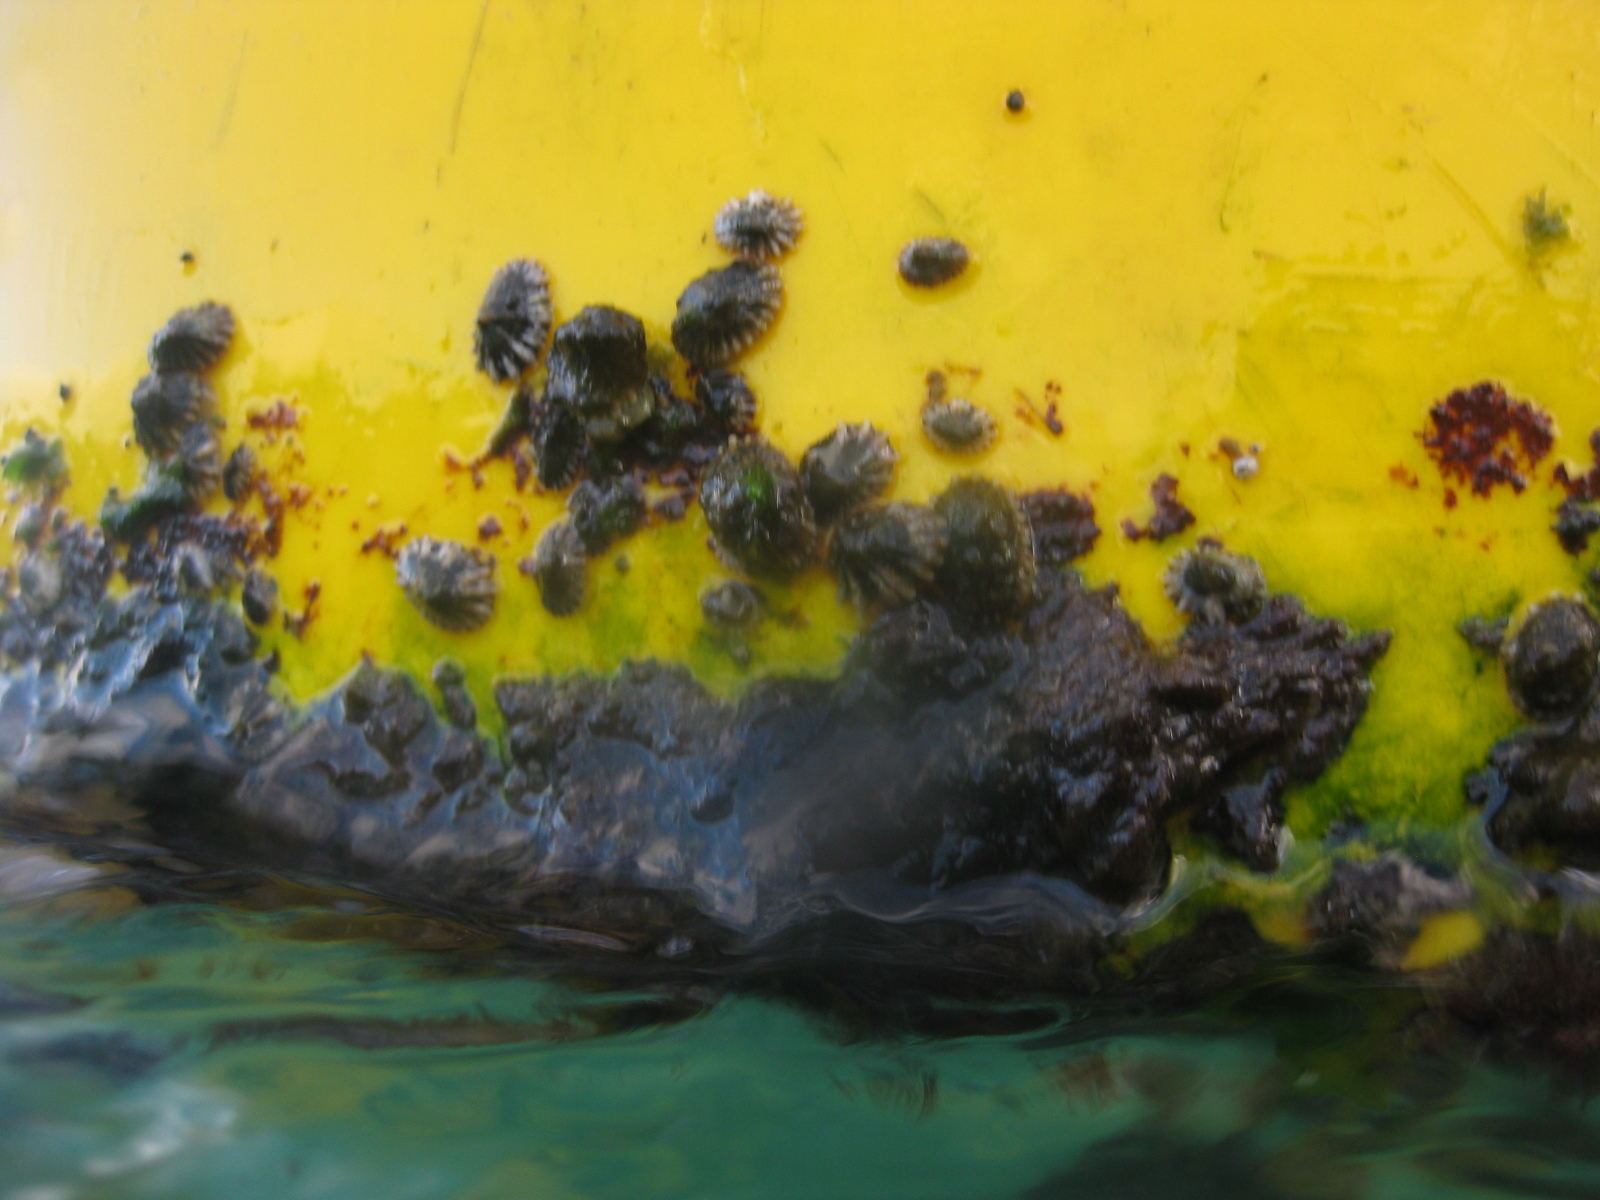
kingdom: Animalia
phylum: Mollusca
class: Gastropoda
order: Siphonariida
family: Siphonariidae
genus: Siphonaria
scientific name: Siphonaria australis
